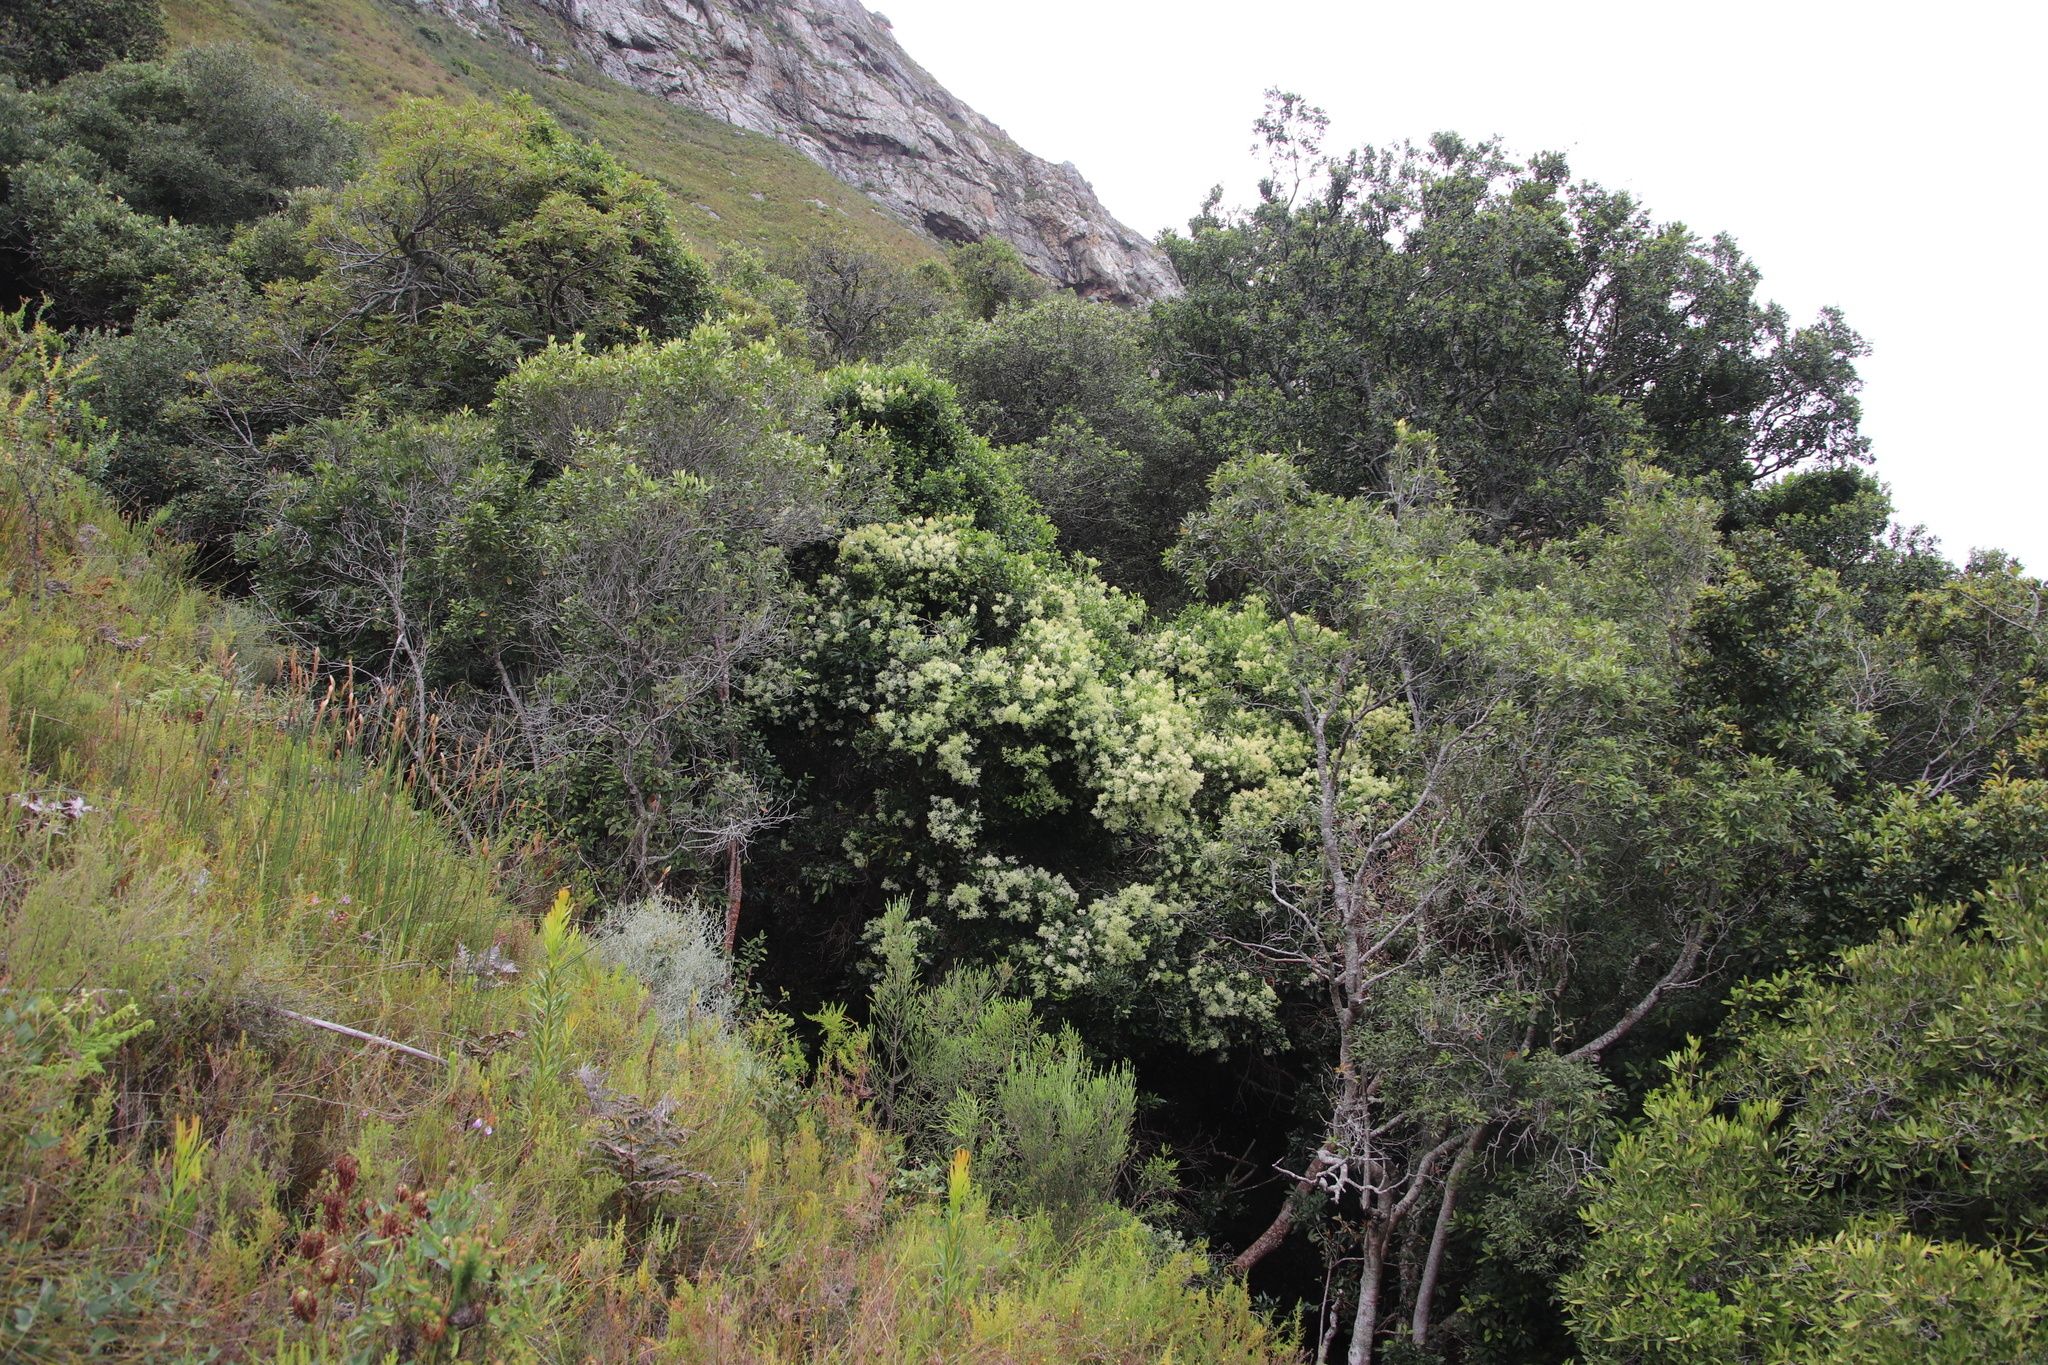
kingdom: Plantae
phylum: Tracheophyta
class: Magnoliopsida
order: Lamiales
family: Oleaceae
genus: Olea
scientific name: Olea capensis
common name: Black ironwood
